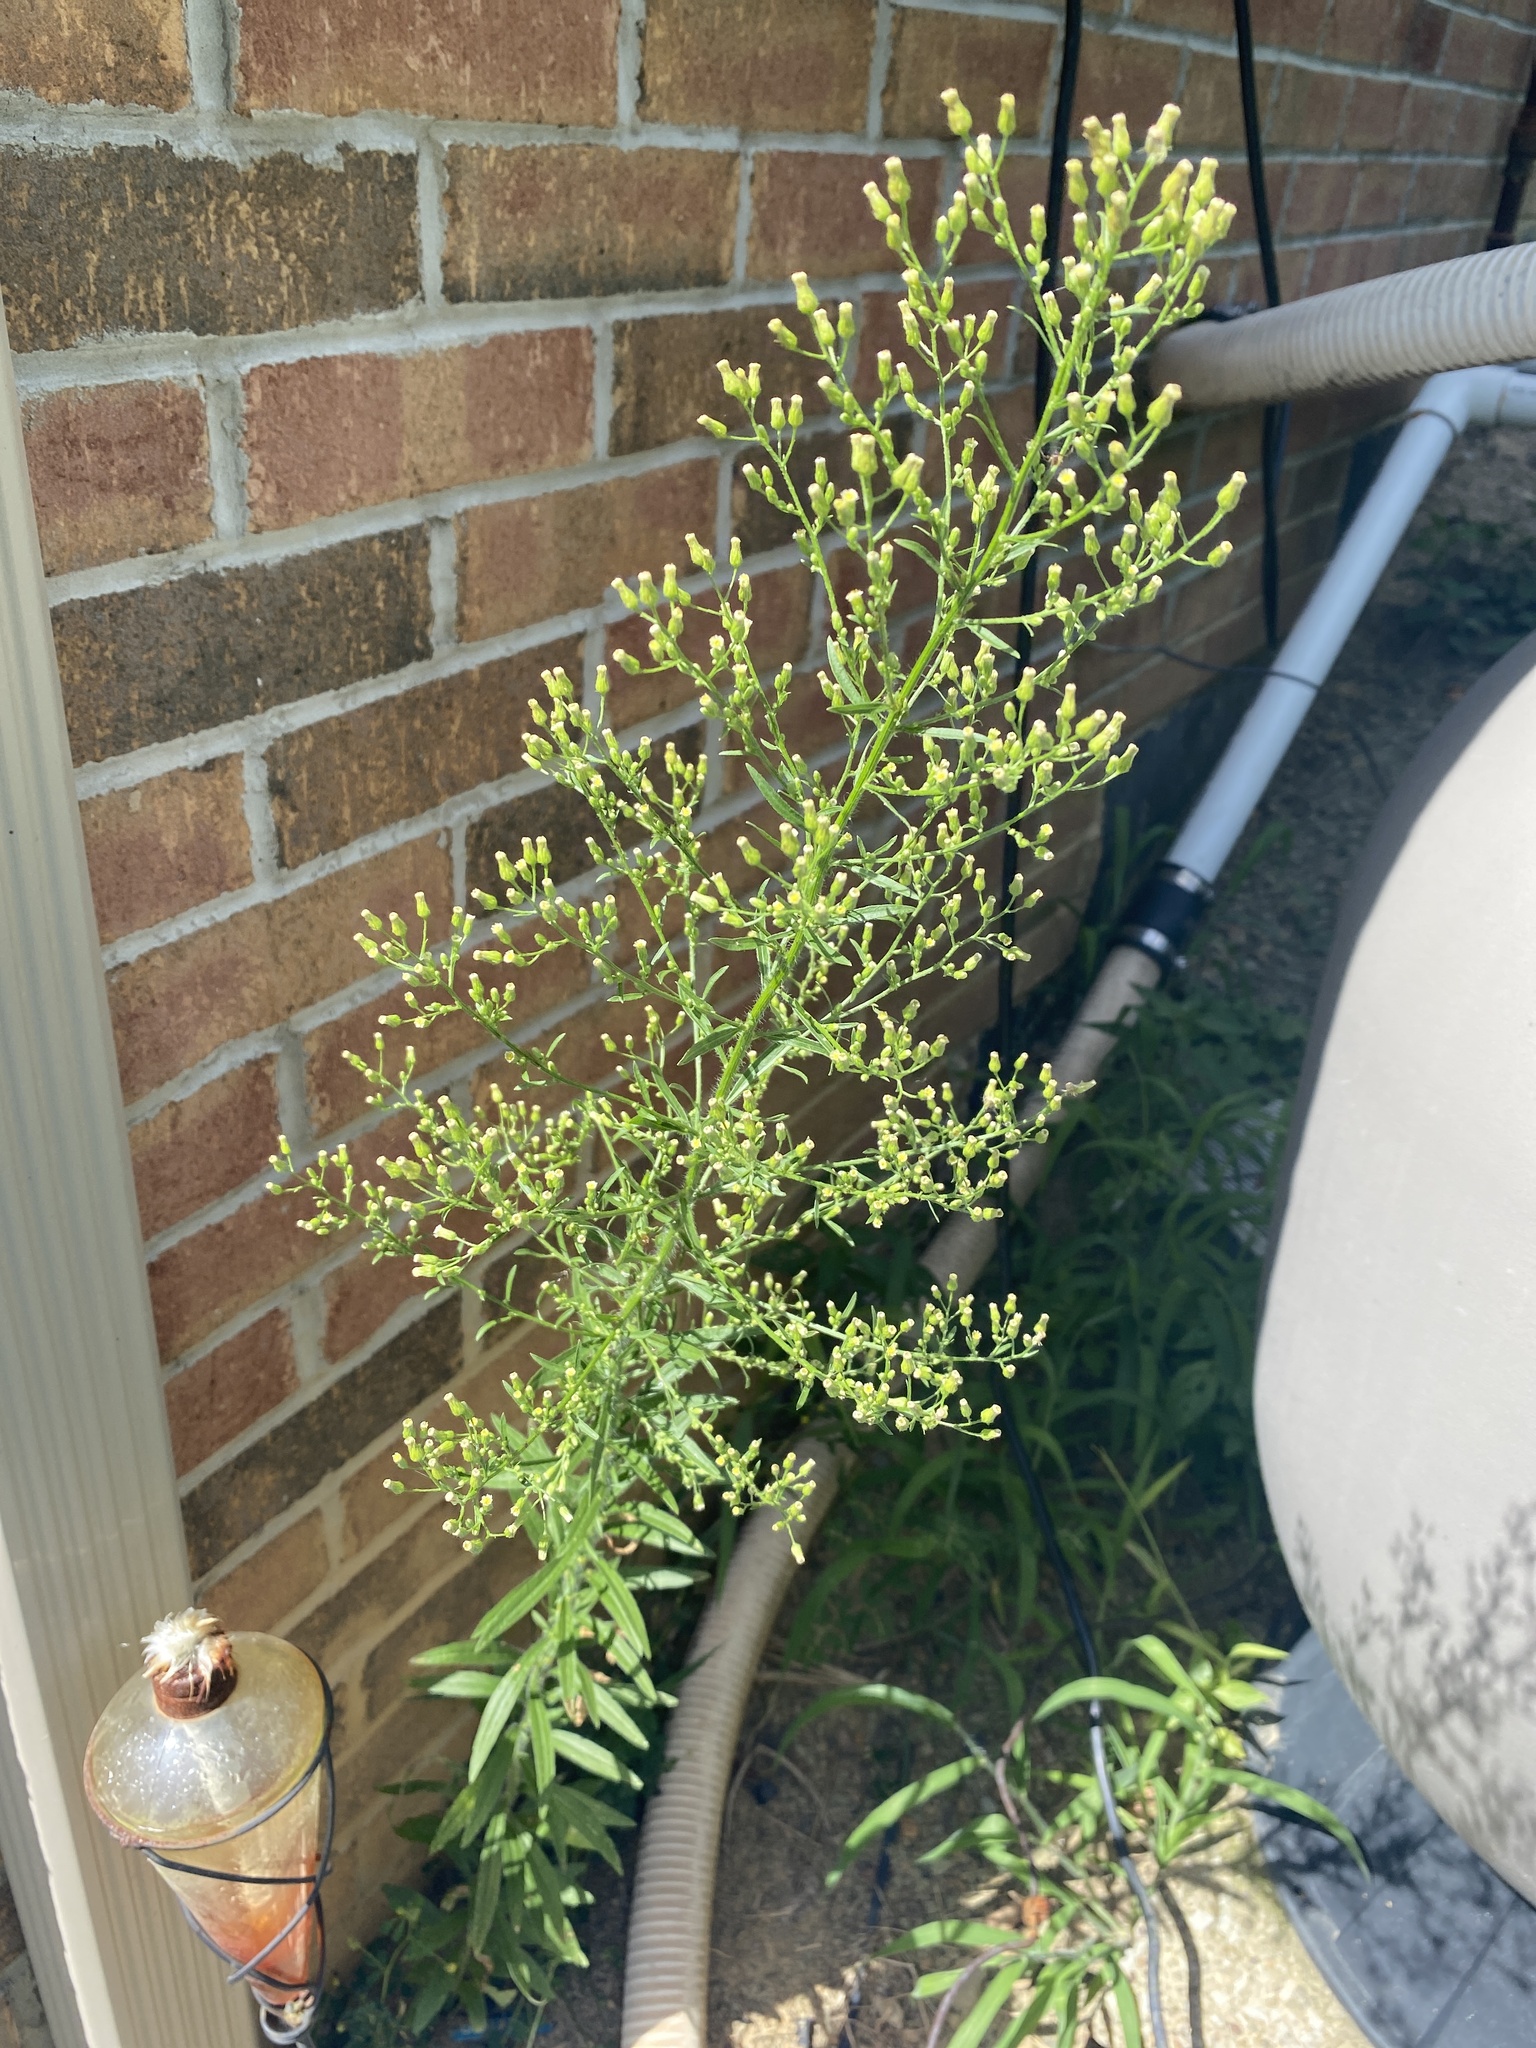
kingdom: Plantae
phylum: Tracheophyta
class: Magnoliopsida
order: Asterales
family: Asteraceae
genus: Erigeron
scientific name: Erigeron canadensis
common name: Canadian fleabane
